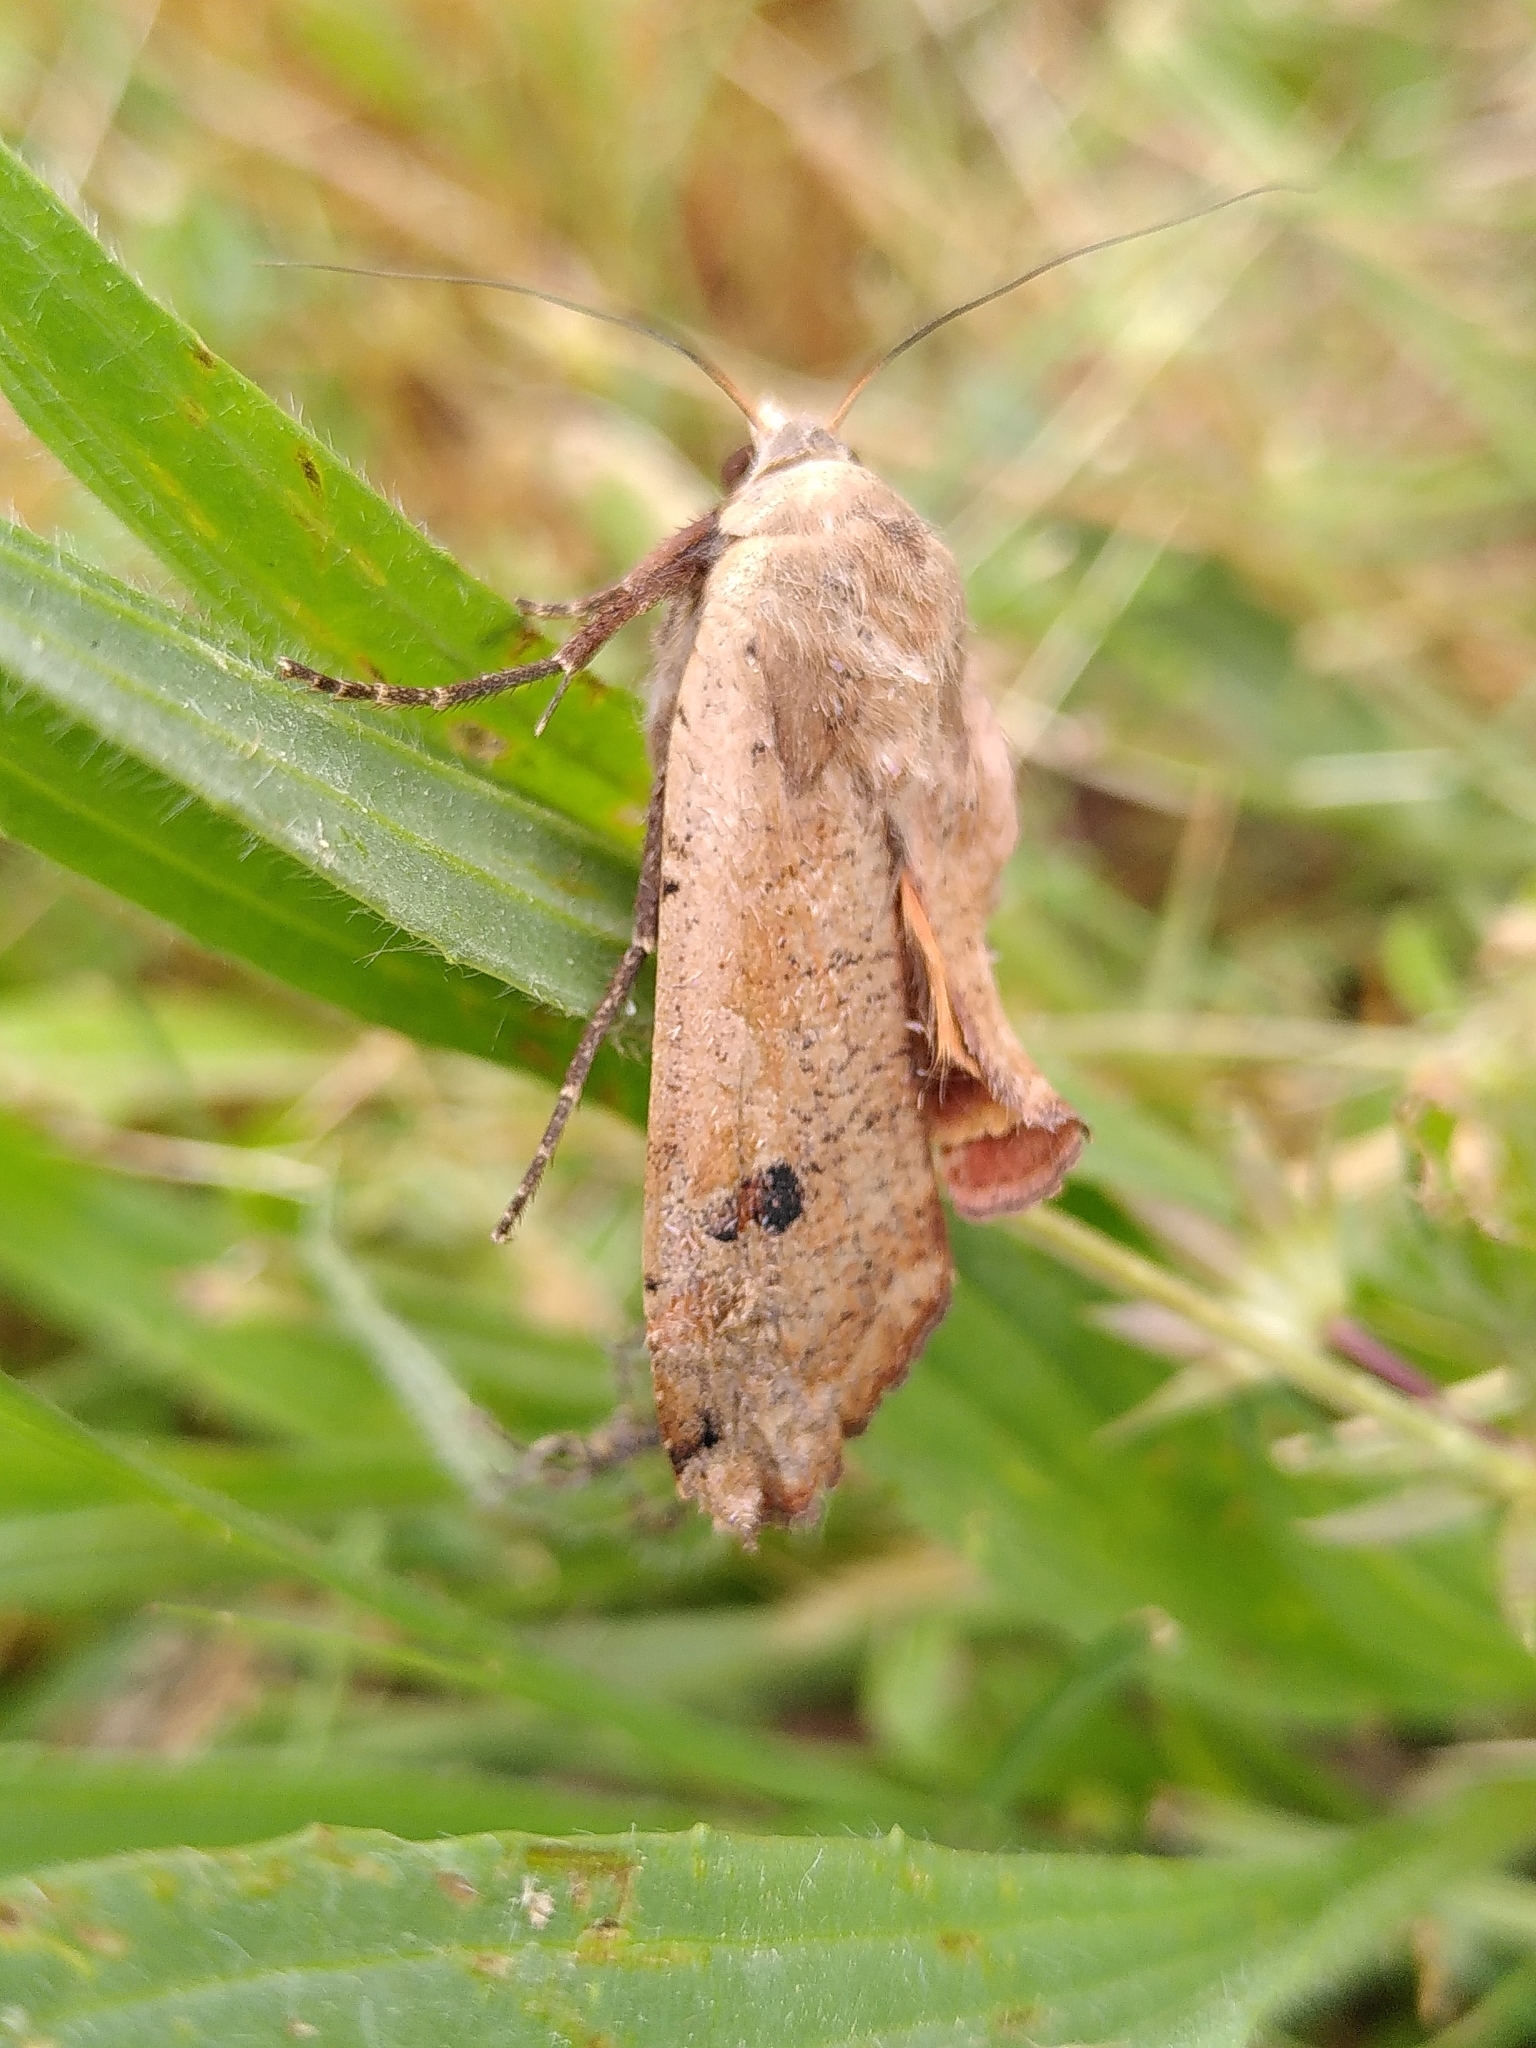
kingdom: Animalia
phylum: Arthropoda
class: Insecta
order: Lepidoptera
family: Noctuidae
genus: Noctua
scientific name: Noctua pronuba
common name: Large yellow underwing
